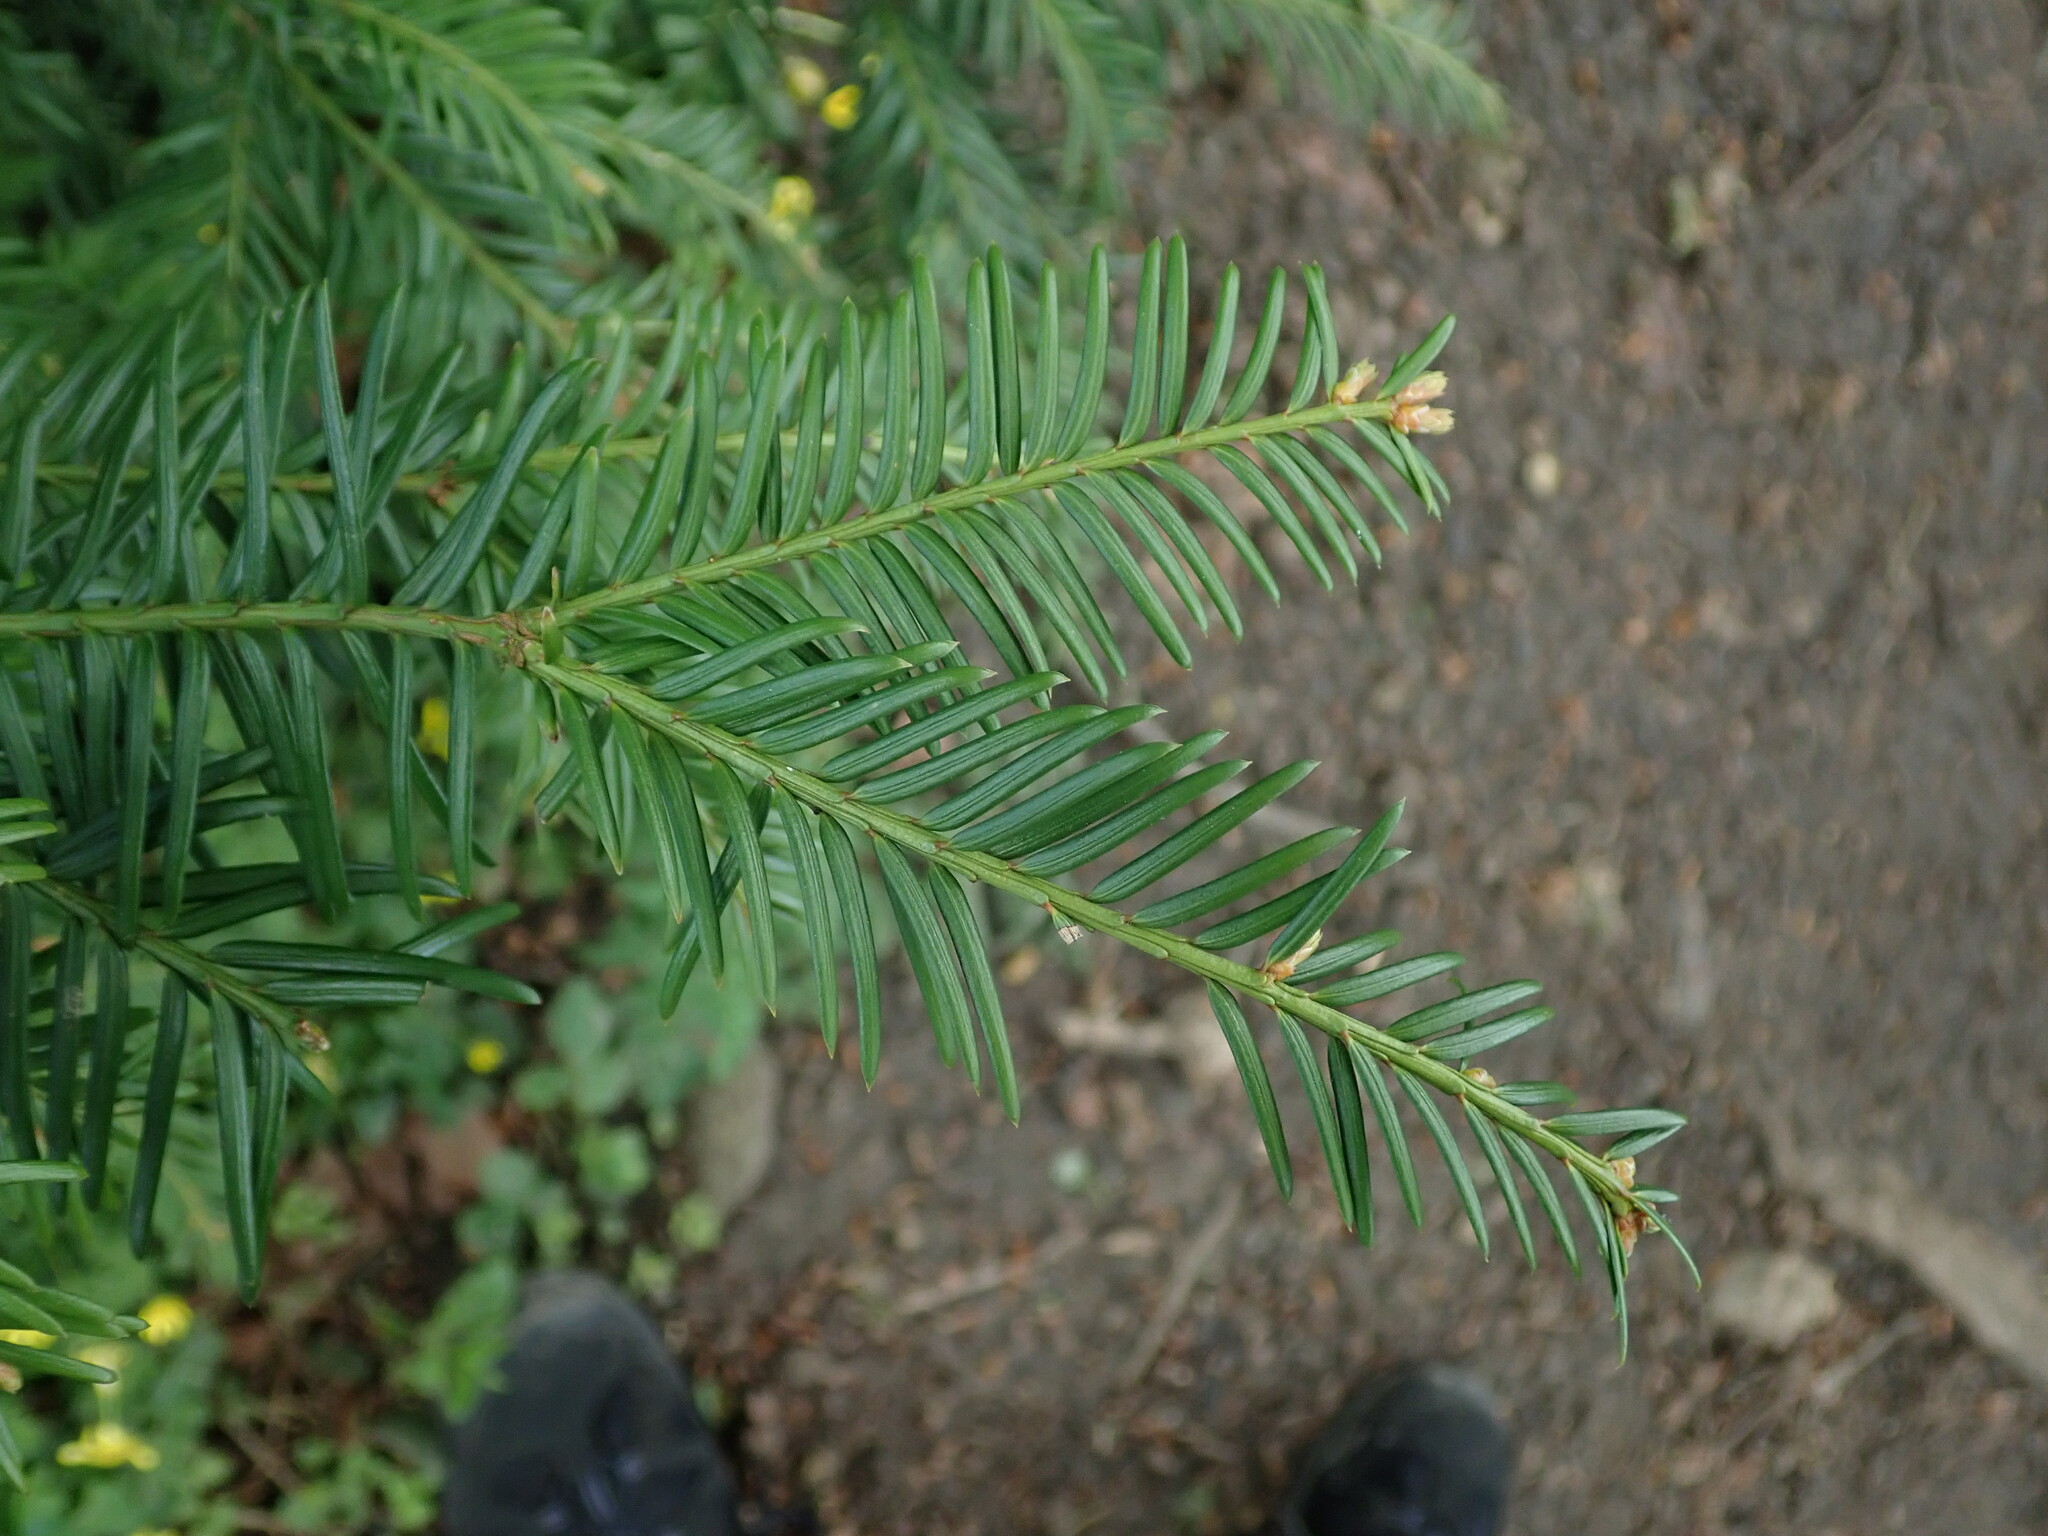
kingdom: Plantae
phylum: Tracheophyta
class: Pinopsida
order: Pinales
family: Taxaceae
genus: Taxus
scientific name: Taxus baccata
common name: Yew
